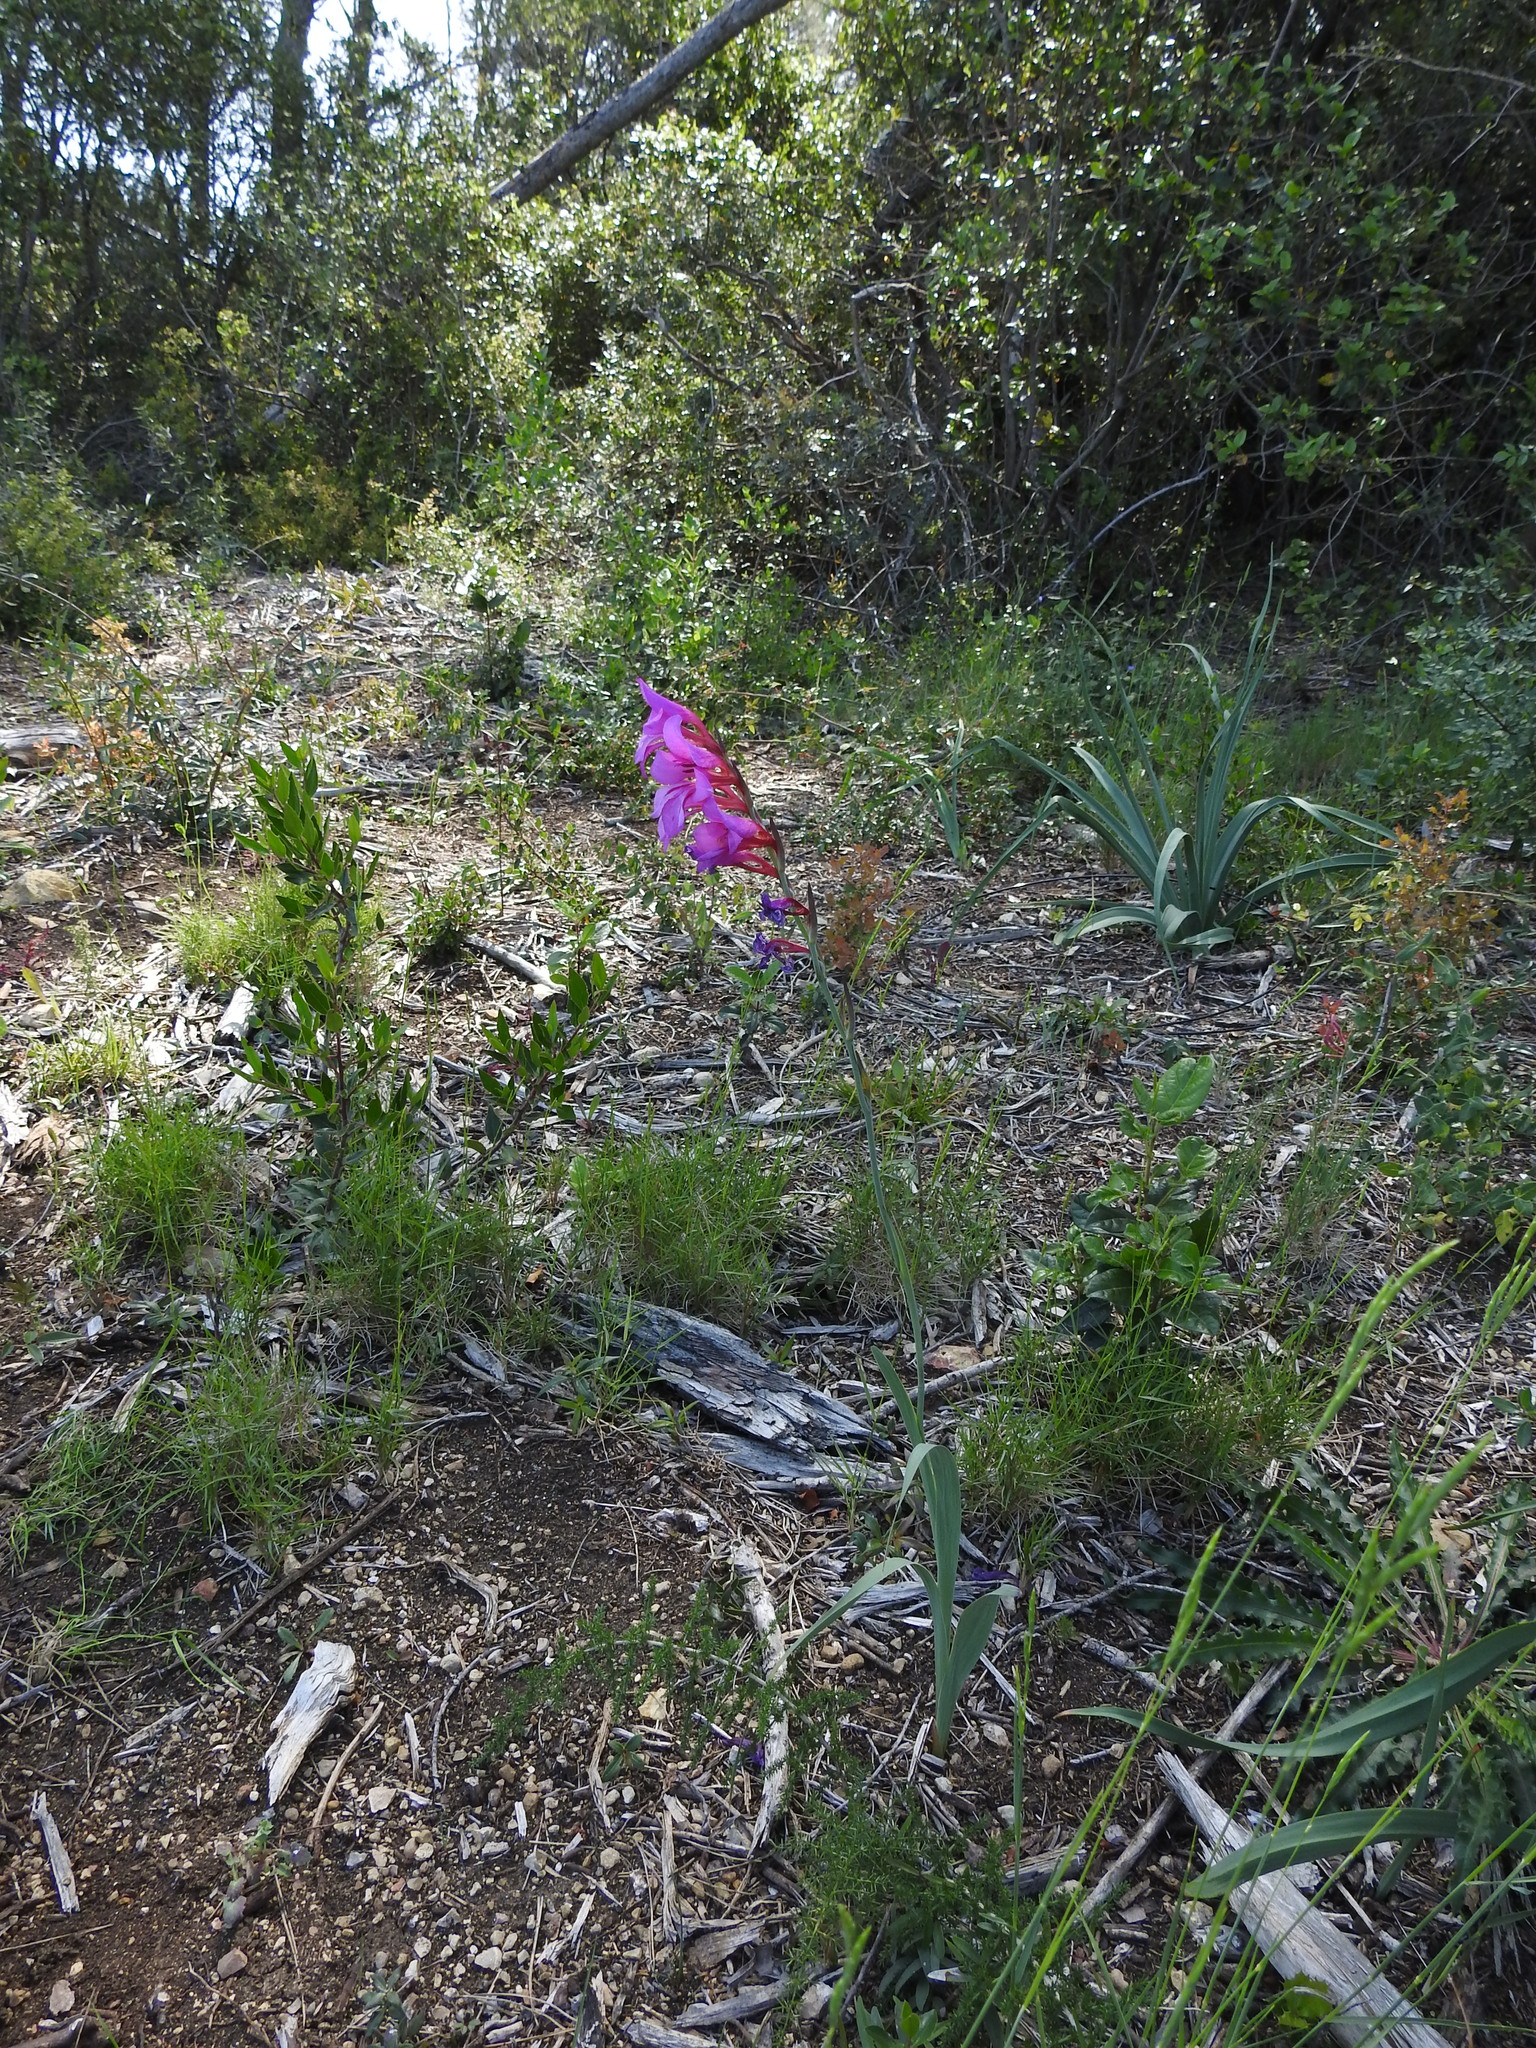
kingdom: Plantae
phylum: Tracheophyta
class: Liliopsida
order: Asparagales
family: Iridaceae
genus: Gladiolus
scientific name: Gladiolus dubius
